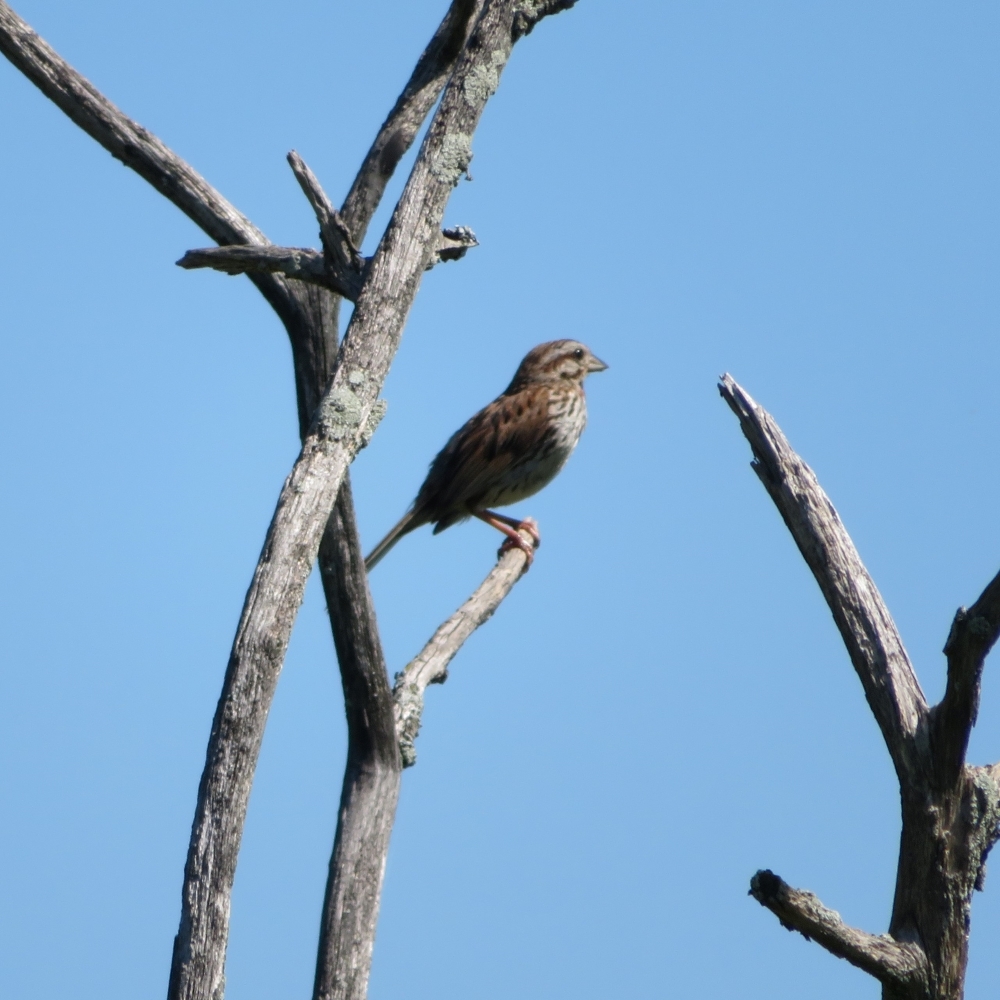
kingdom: Animalia
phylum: Chordata
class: Aves
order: Passeriformes
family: Passerellidae
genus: Melospiza
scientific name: Melospiza melodia
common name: Song sparrow
